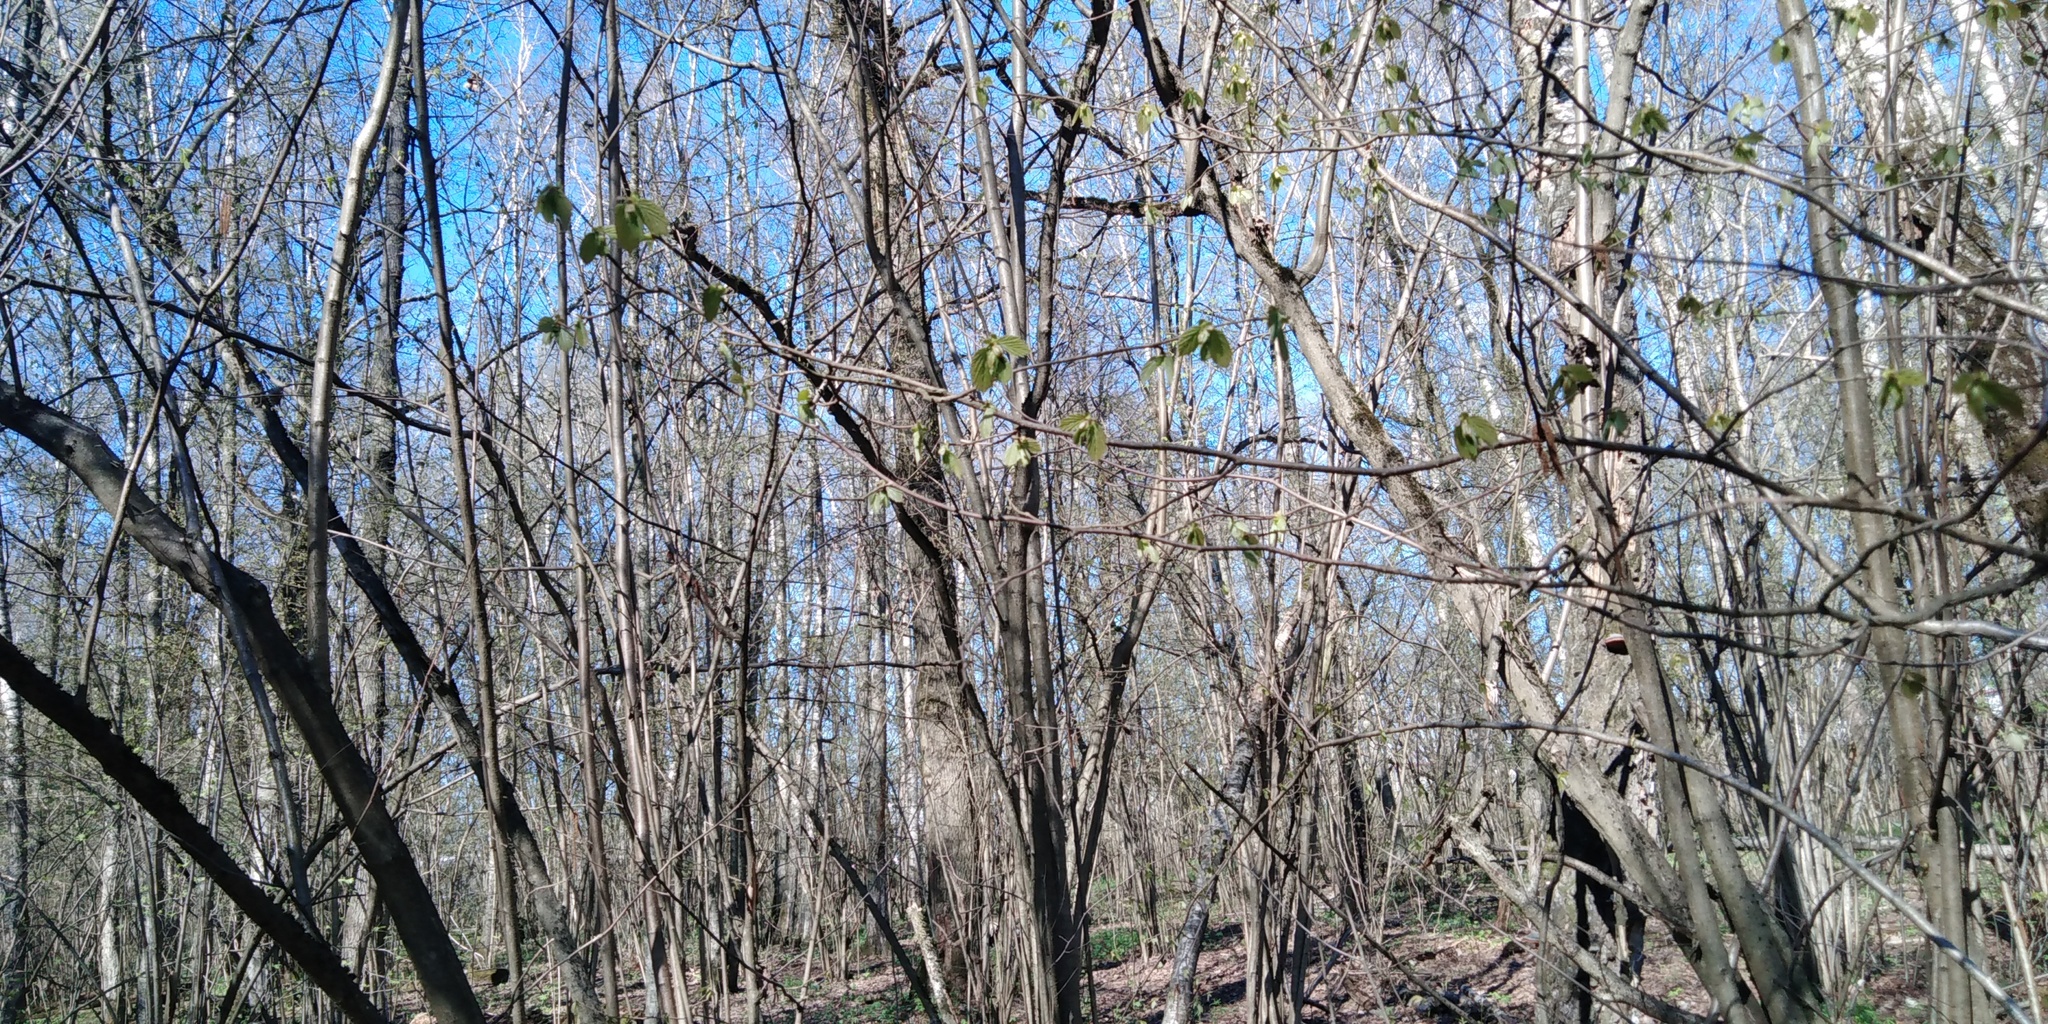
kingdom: Plantae
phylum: Tracheophyta
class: Magnoliopsida
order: Fagales
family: Betulaceae
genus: Corylus
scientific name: Corylus avellana
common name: European hazel
